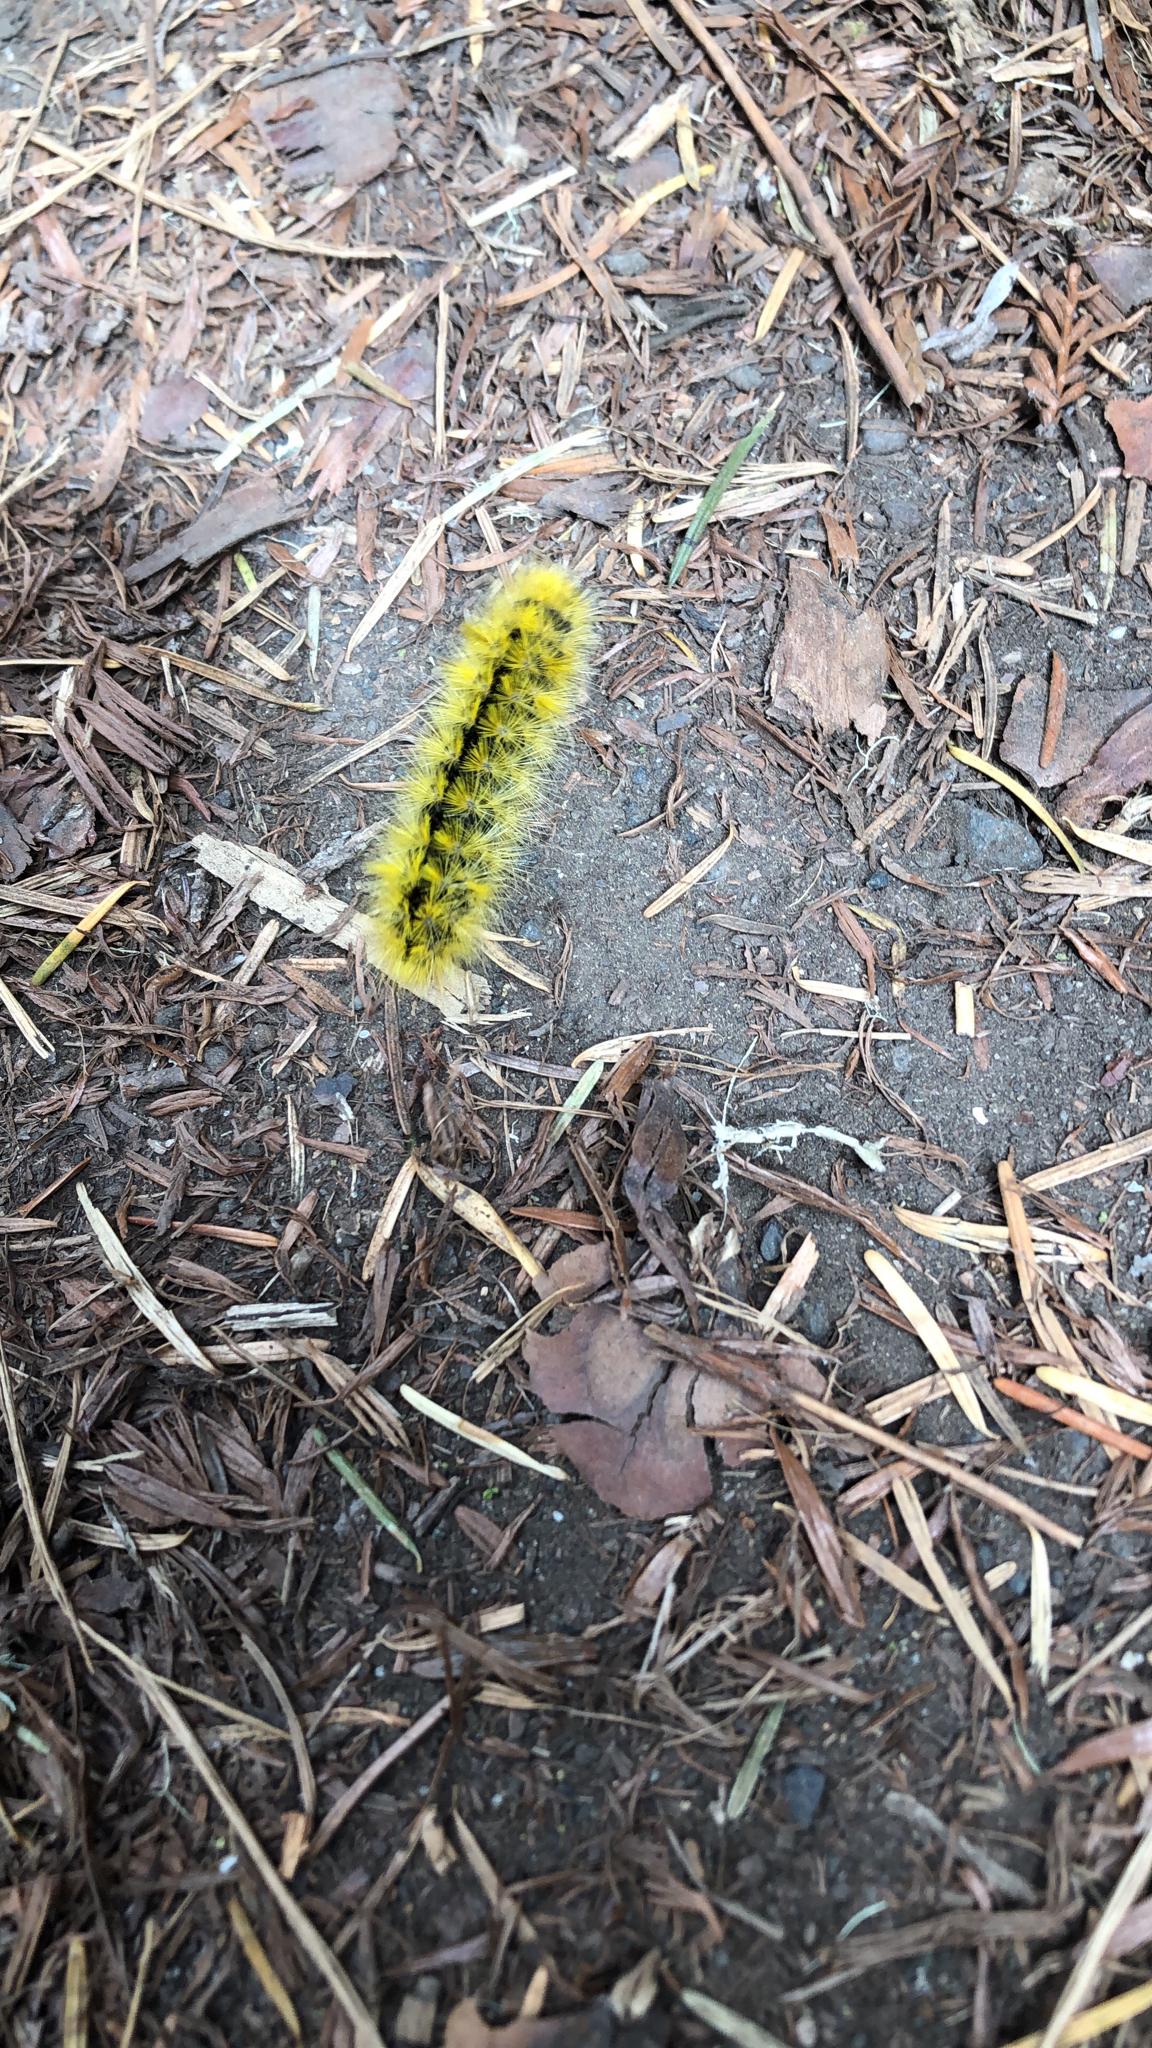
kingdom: Animalia
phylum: Arthropoda
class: Insecta
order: Lepidoptera
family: Erebidae
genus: Lophocampa
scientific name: Lophocampa argentata
